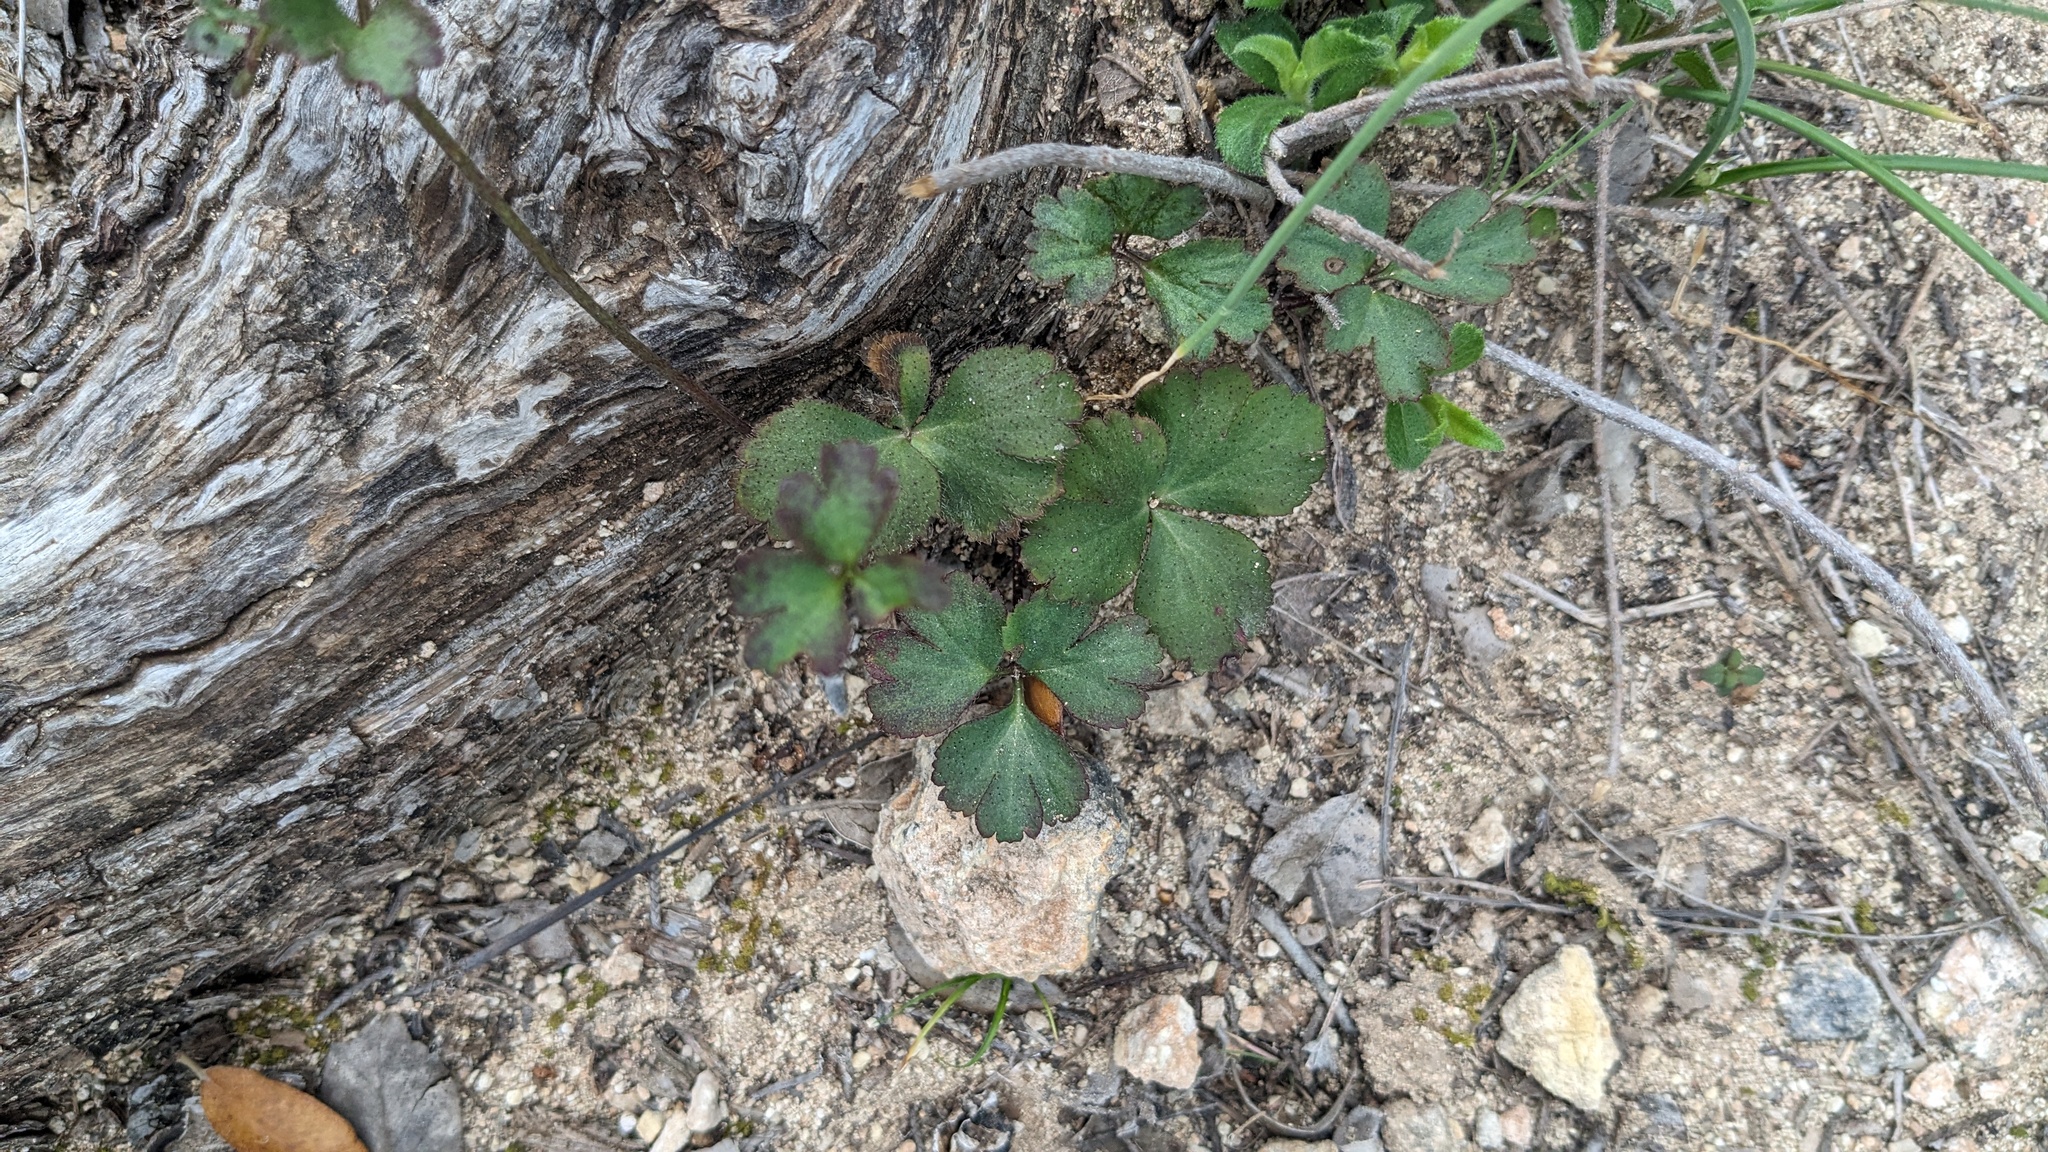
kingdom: Plantae
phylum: Tracheophyta
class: Magnoliopsida
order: Ranunculales
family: Ranunculaceae
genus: Anemone
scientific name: Anemone berlandieri
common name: Ten-petal anemone
